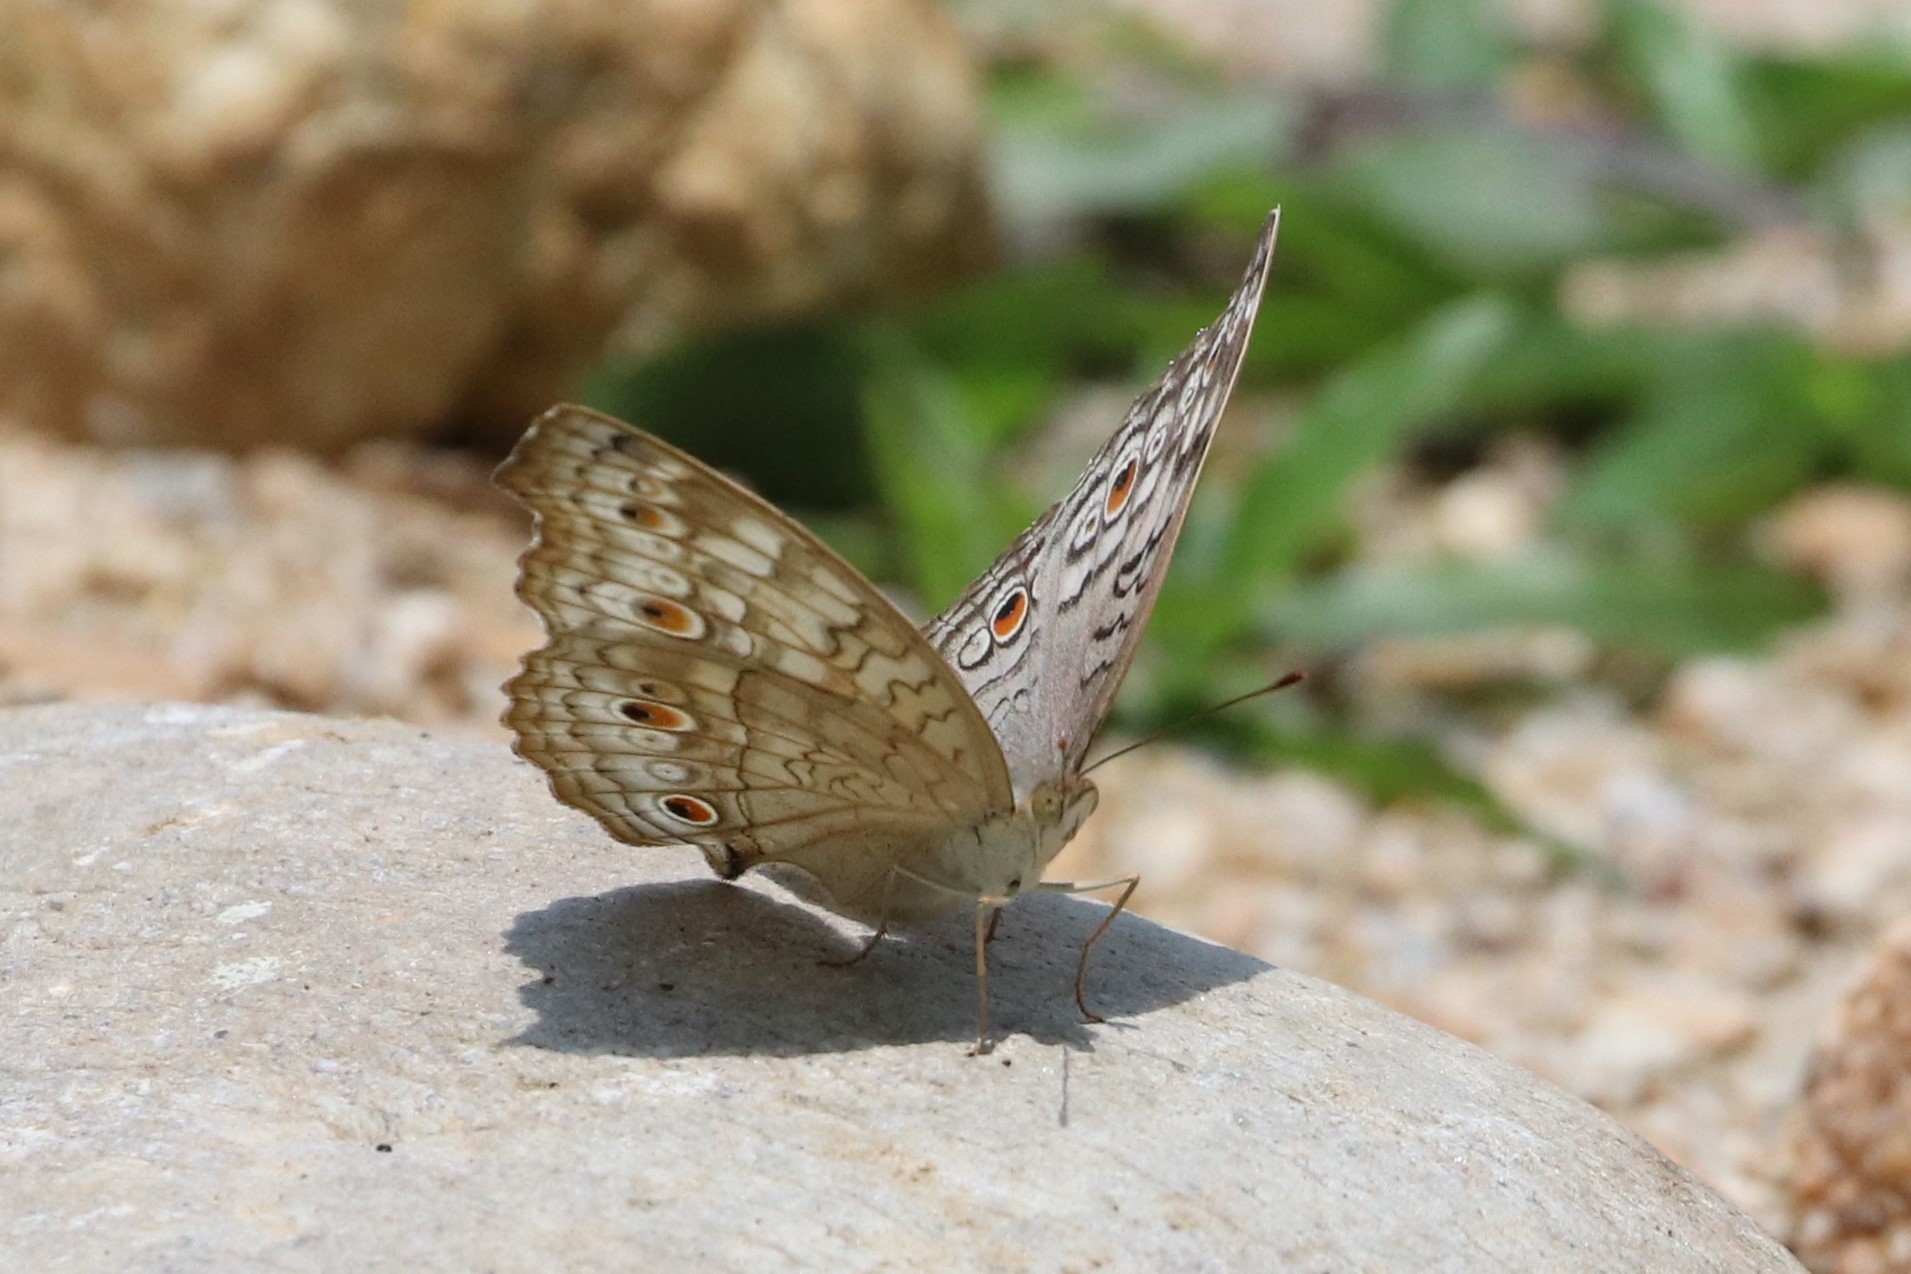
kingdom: Animalia
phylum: Arthropoda
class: Insecta
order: Lepidoptera
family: Nymphalidae
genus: Junonia
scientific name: Junonia atlites
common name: Grey pansy
